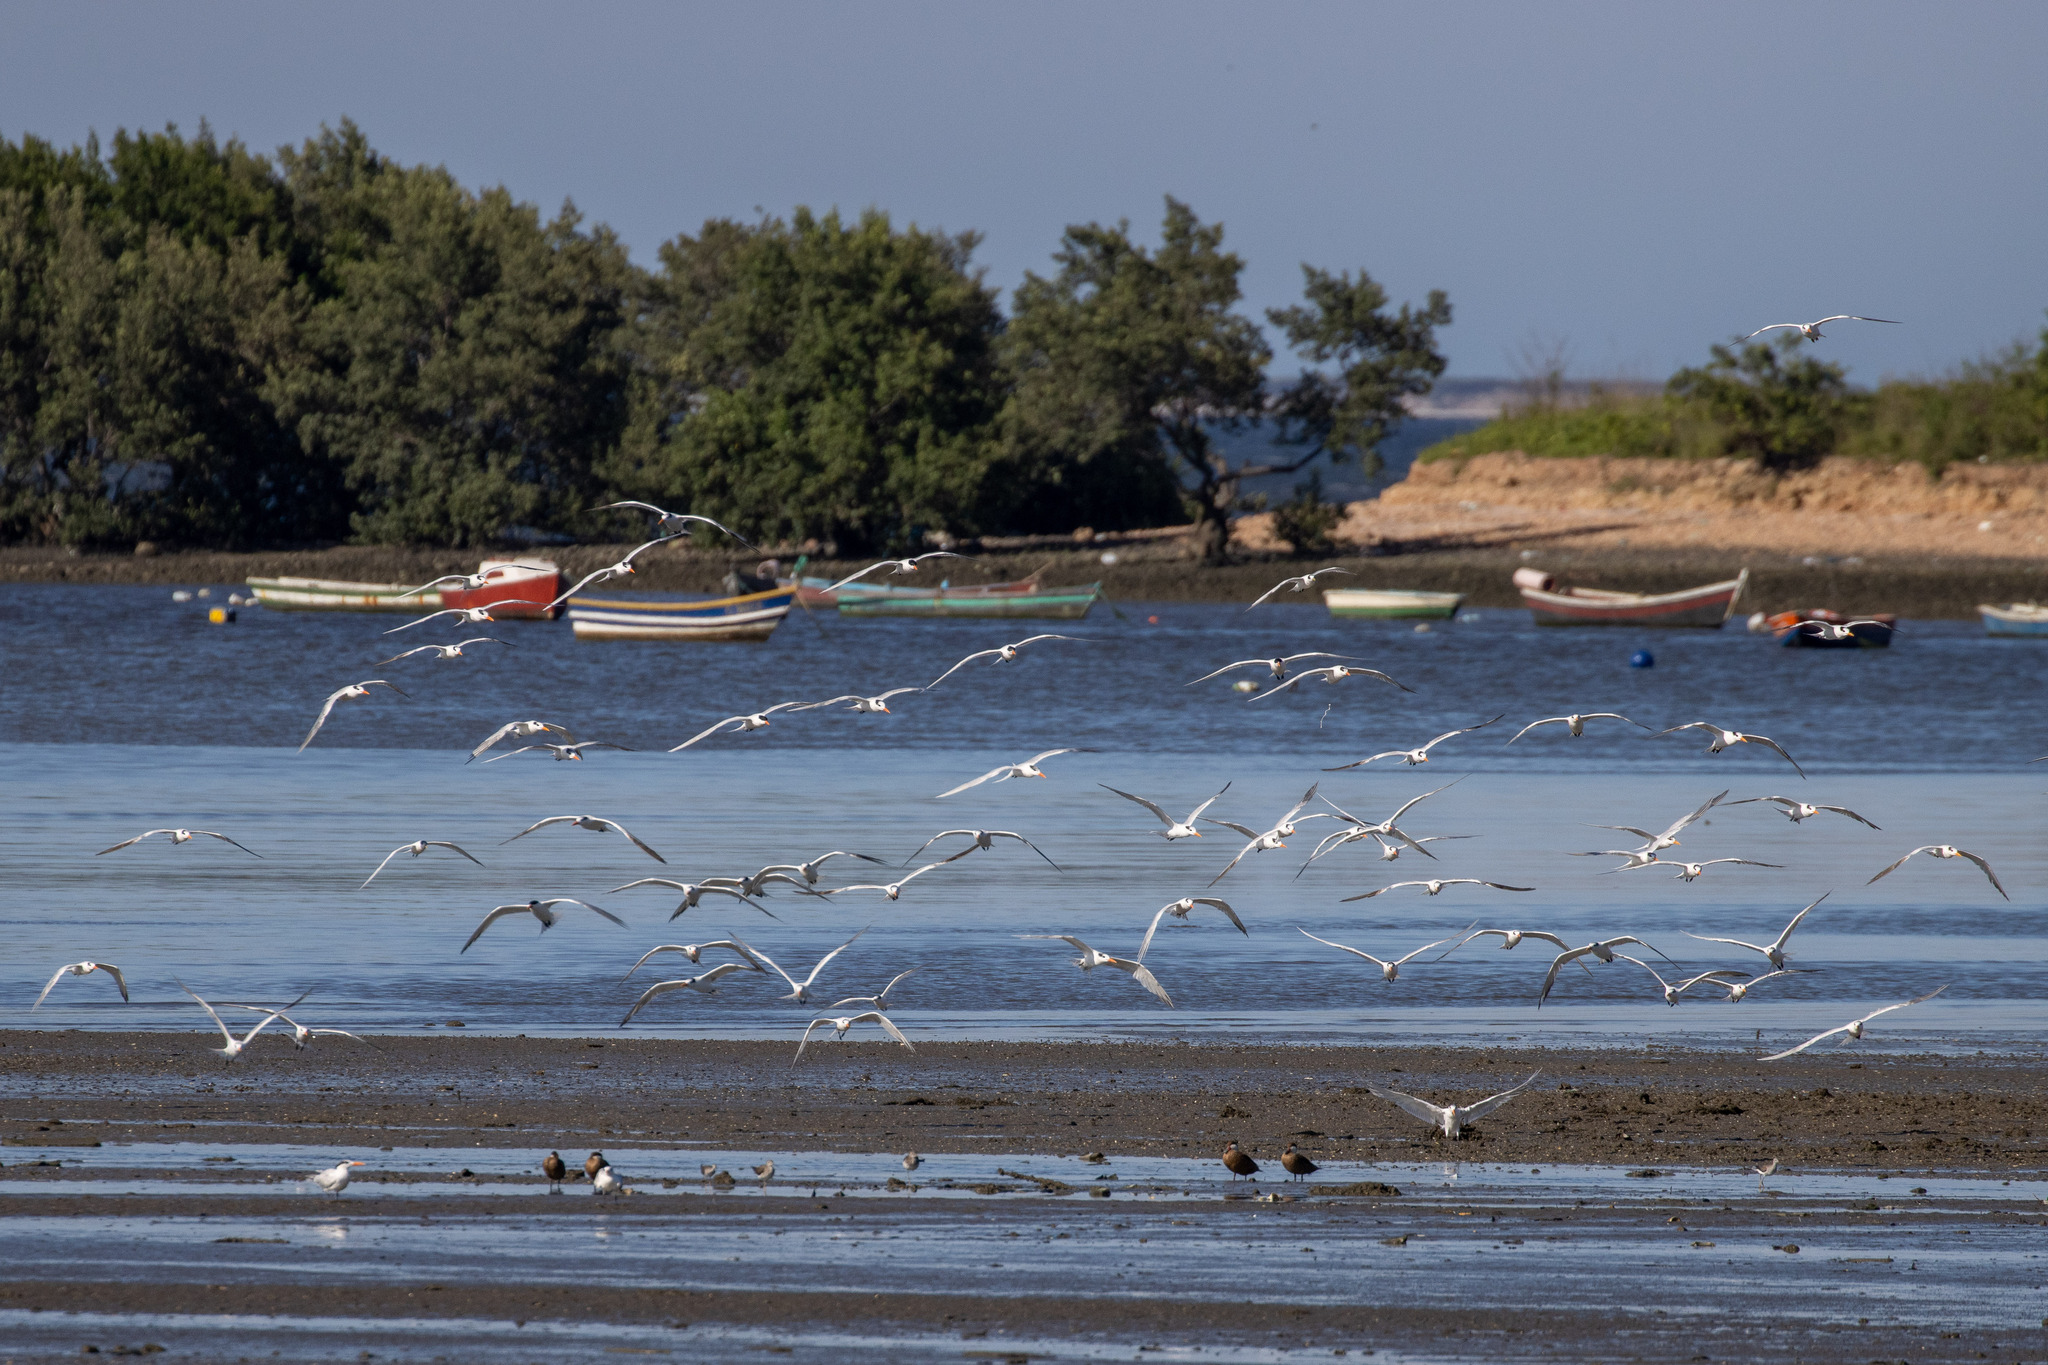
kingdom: Animalia
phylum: Chordata
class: Aves
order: Charadriiformes
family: Laridae
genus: Thalasseus
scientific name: Thalasseus maximus
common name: Royal tern
